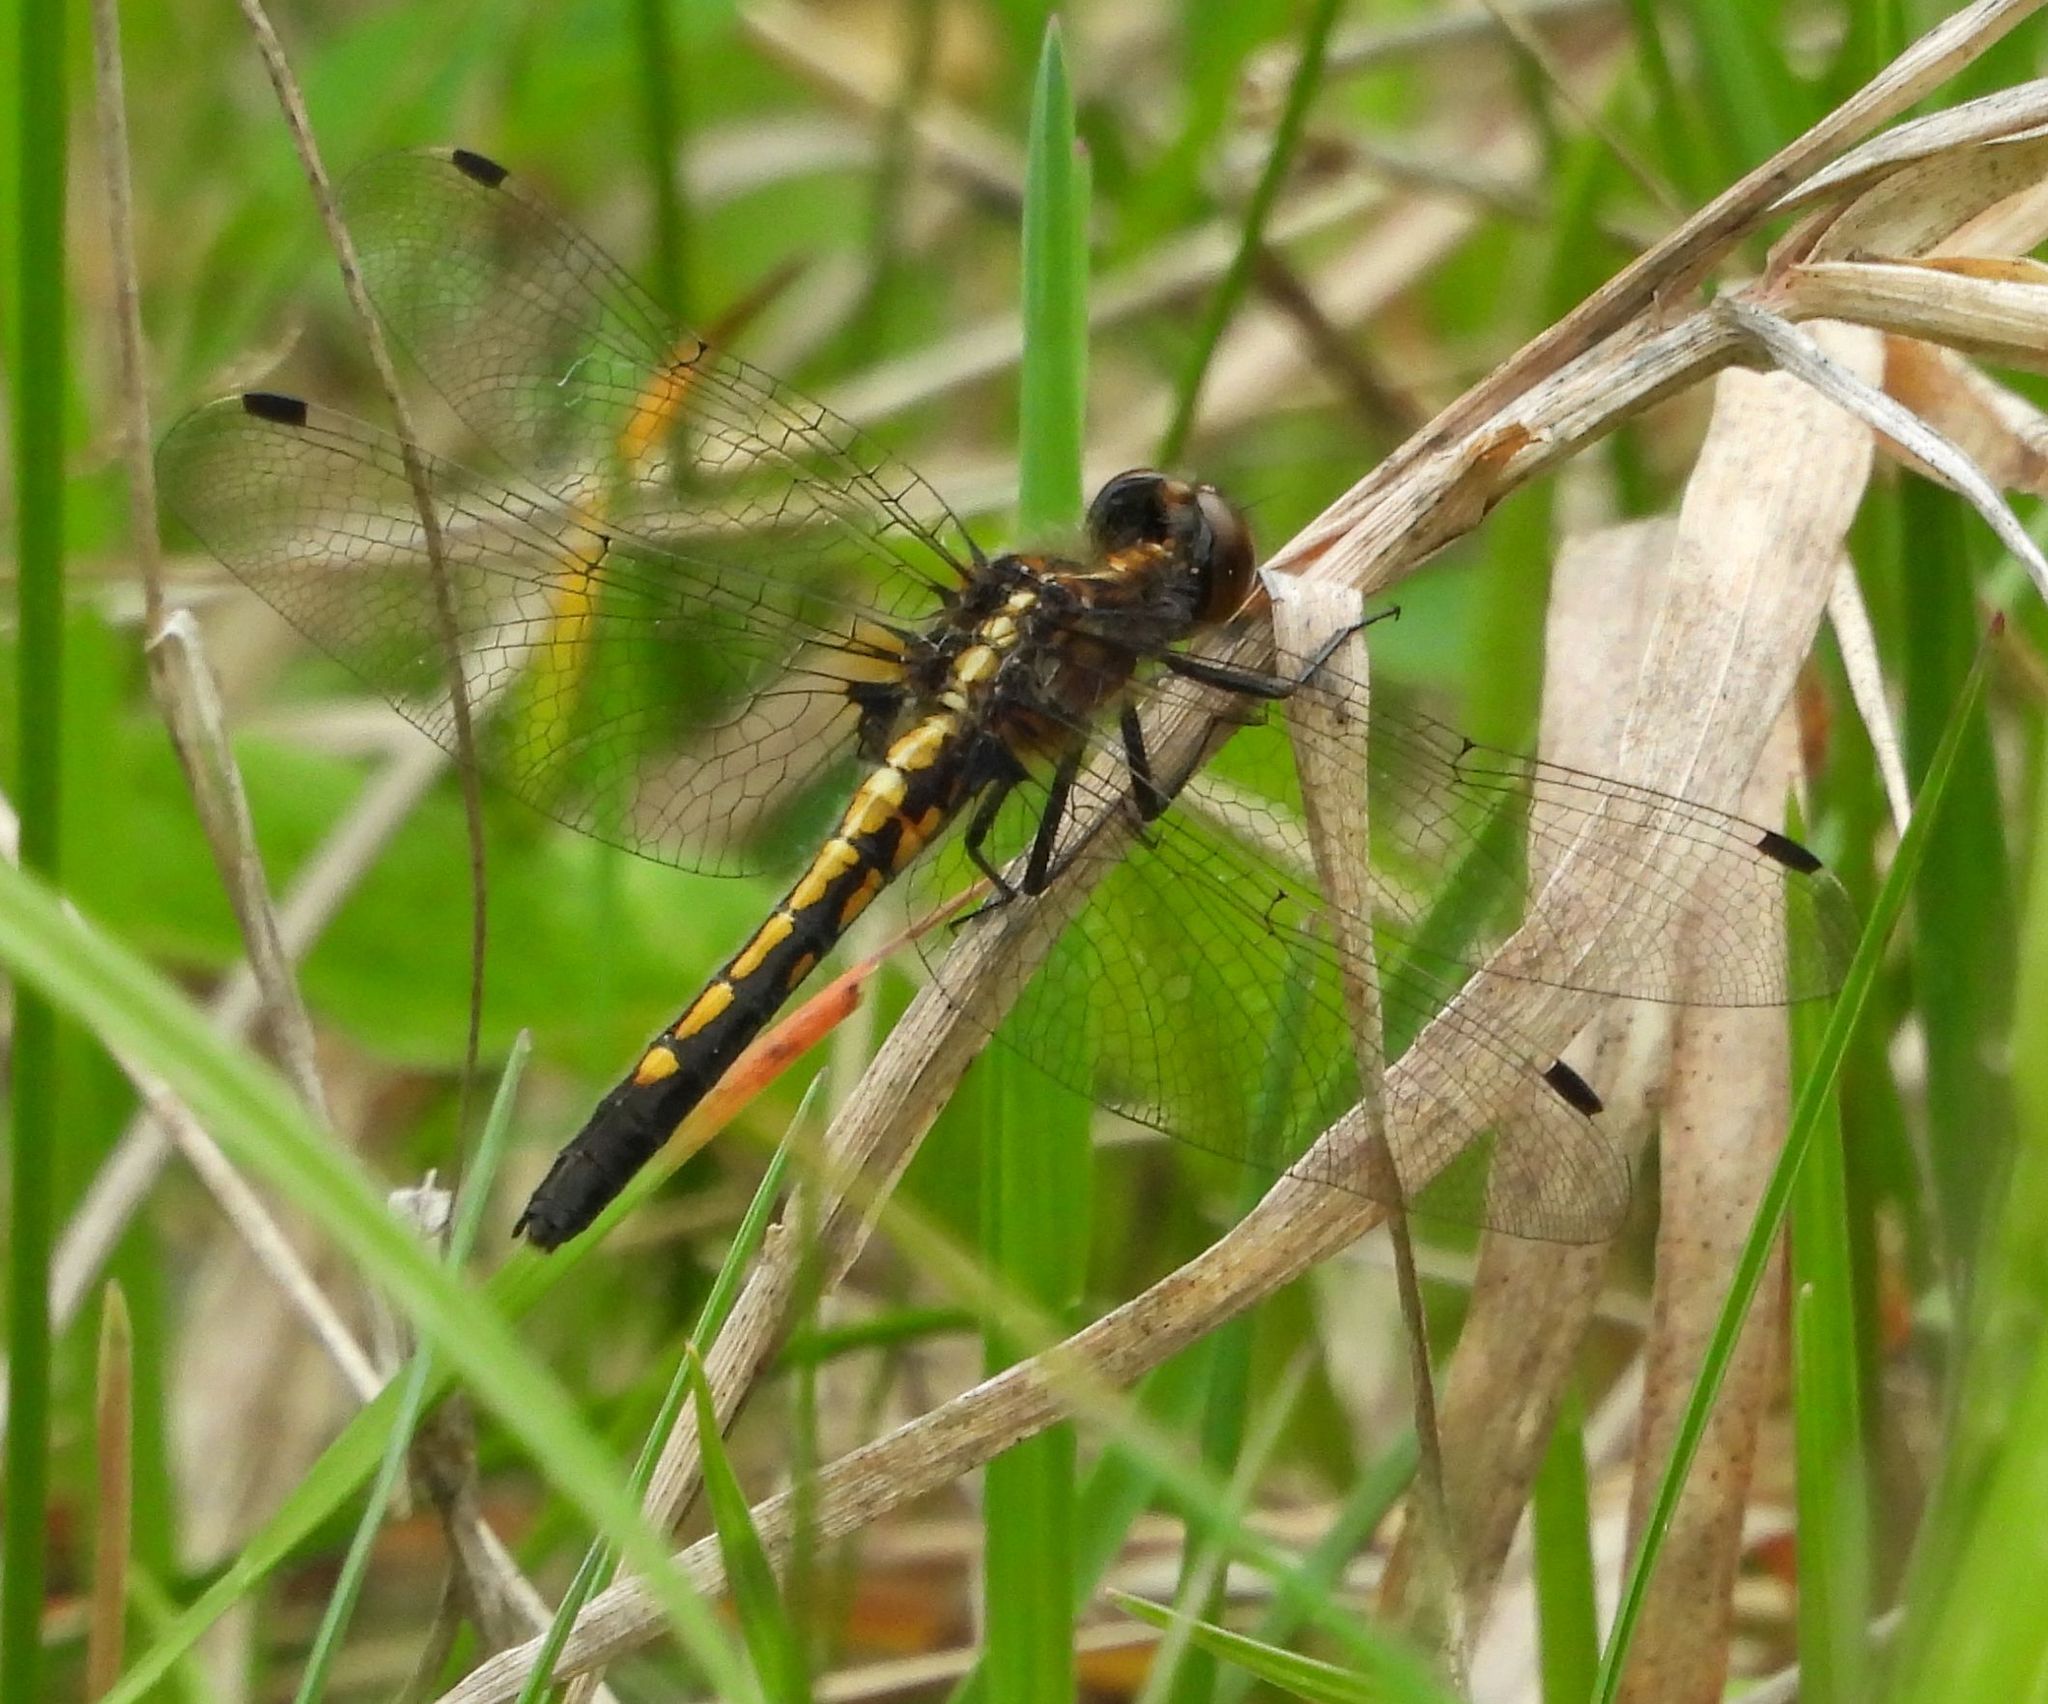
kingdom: Animalia
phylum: Arthropoda
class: Insecta
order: Odonata
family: Libellulidae
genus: Leucorrhinia
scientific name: Leucorrhinia intacta
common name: Dot-tailed whiteface
